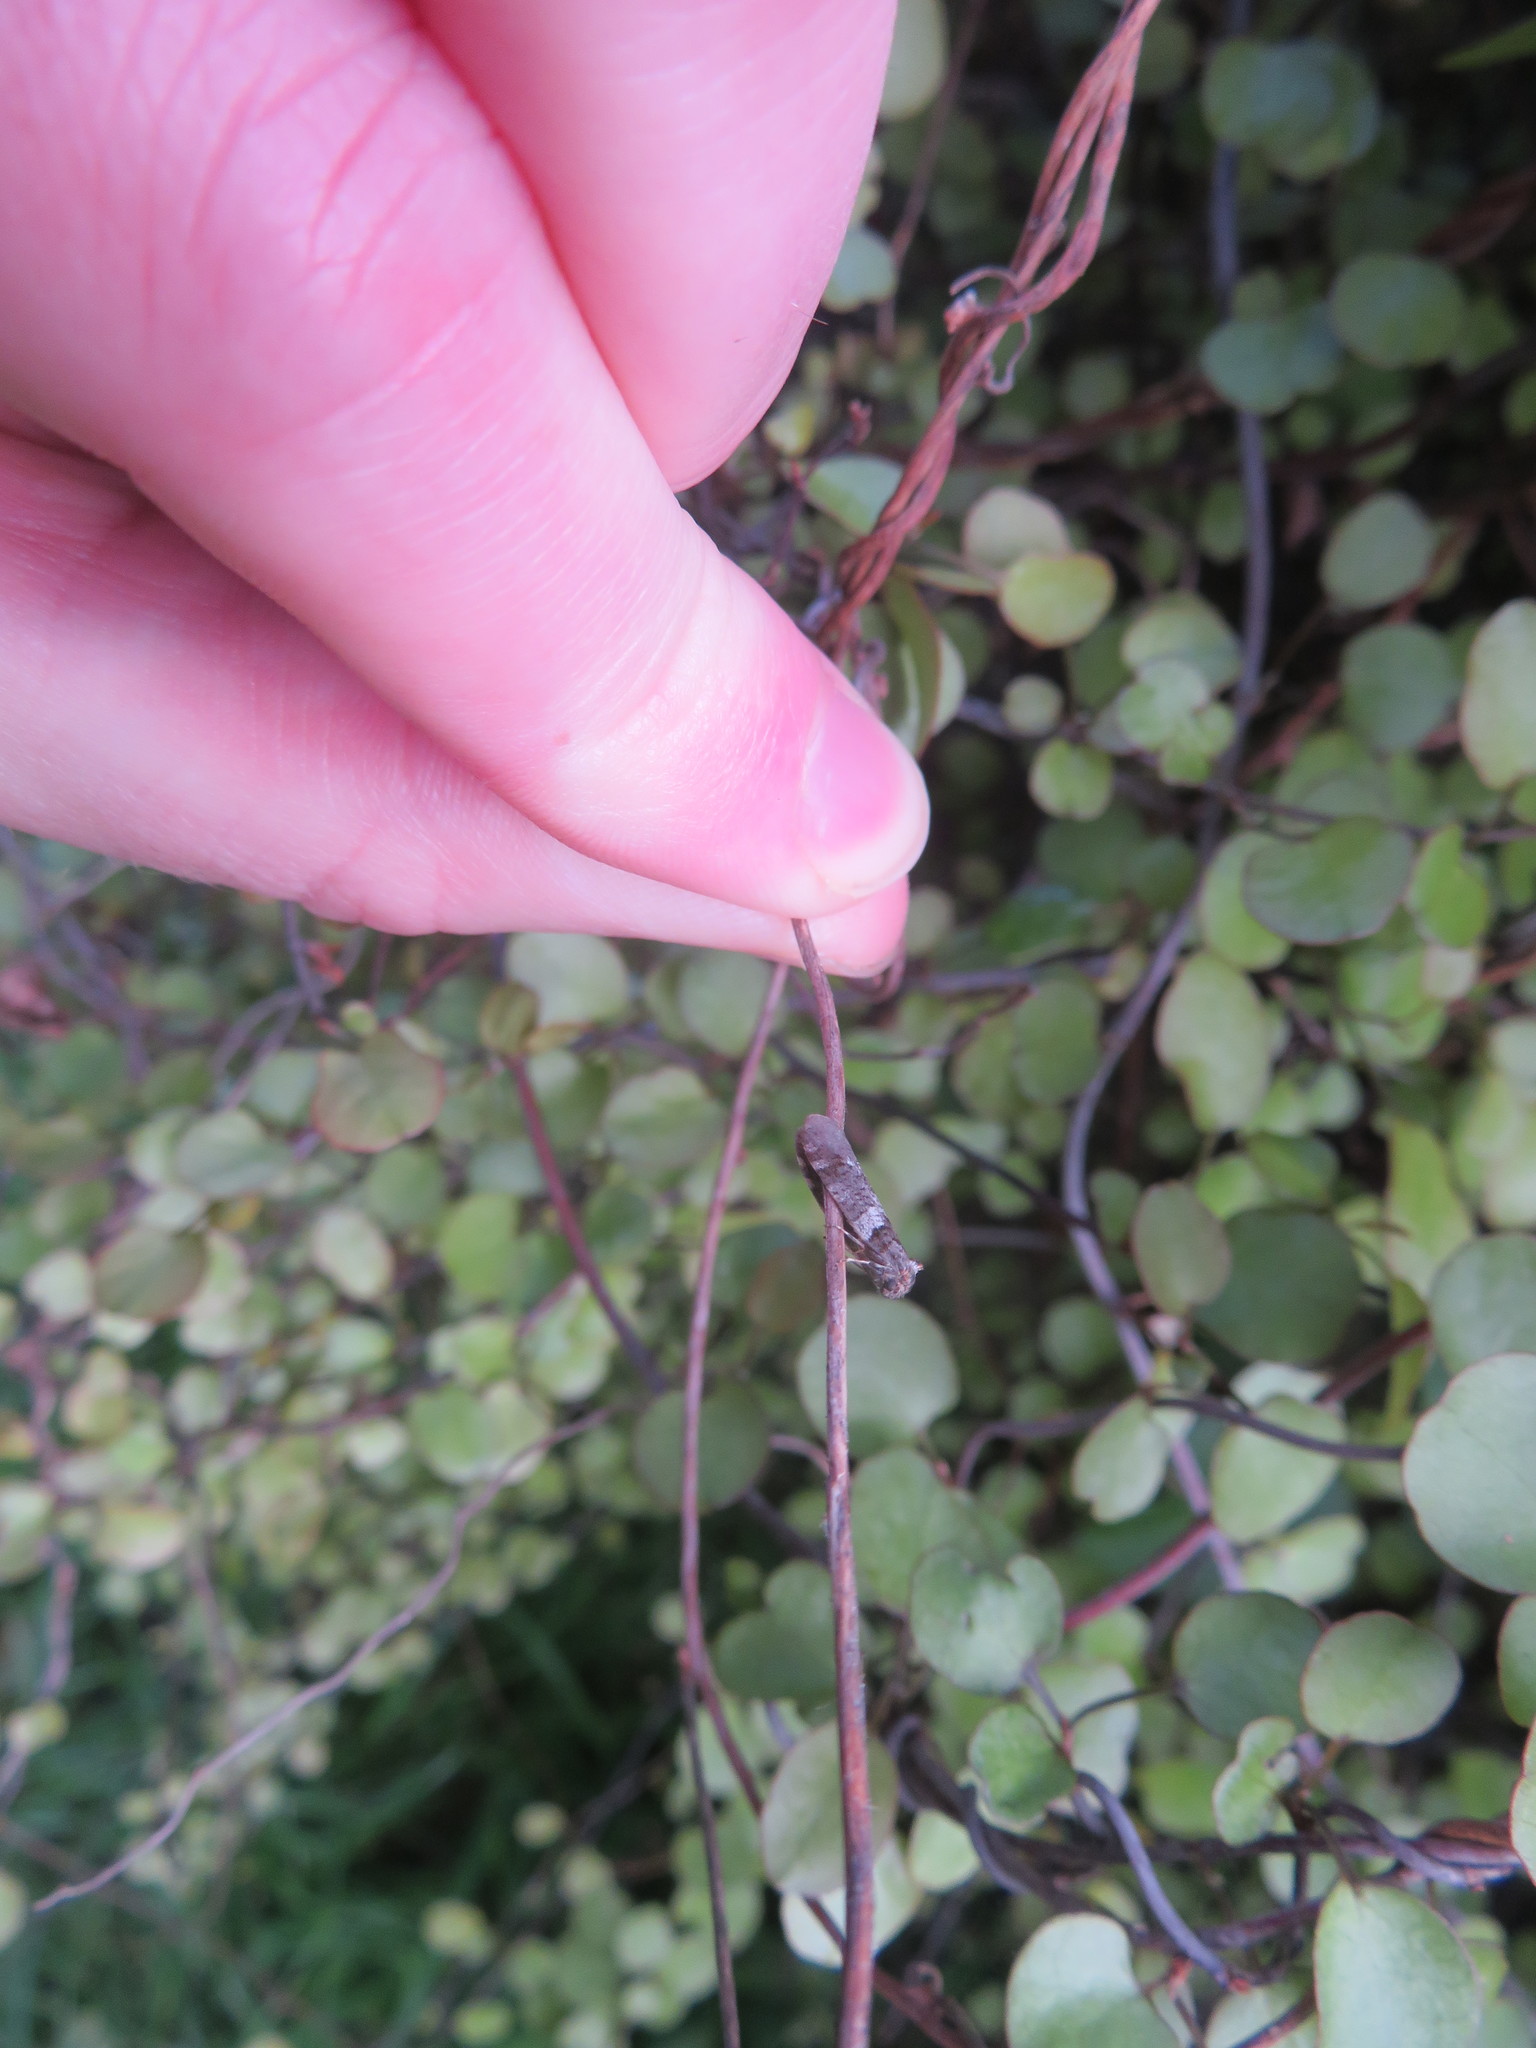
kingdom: Animalia
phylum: Arthropoda
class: Insecta
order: Lepidoptera
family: Psychidae
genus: Lepidoscia
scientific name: Lepidoscia heliochares
